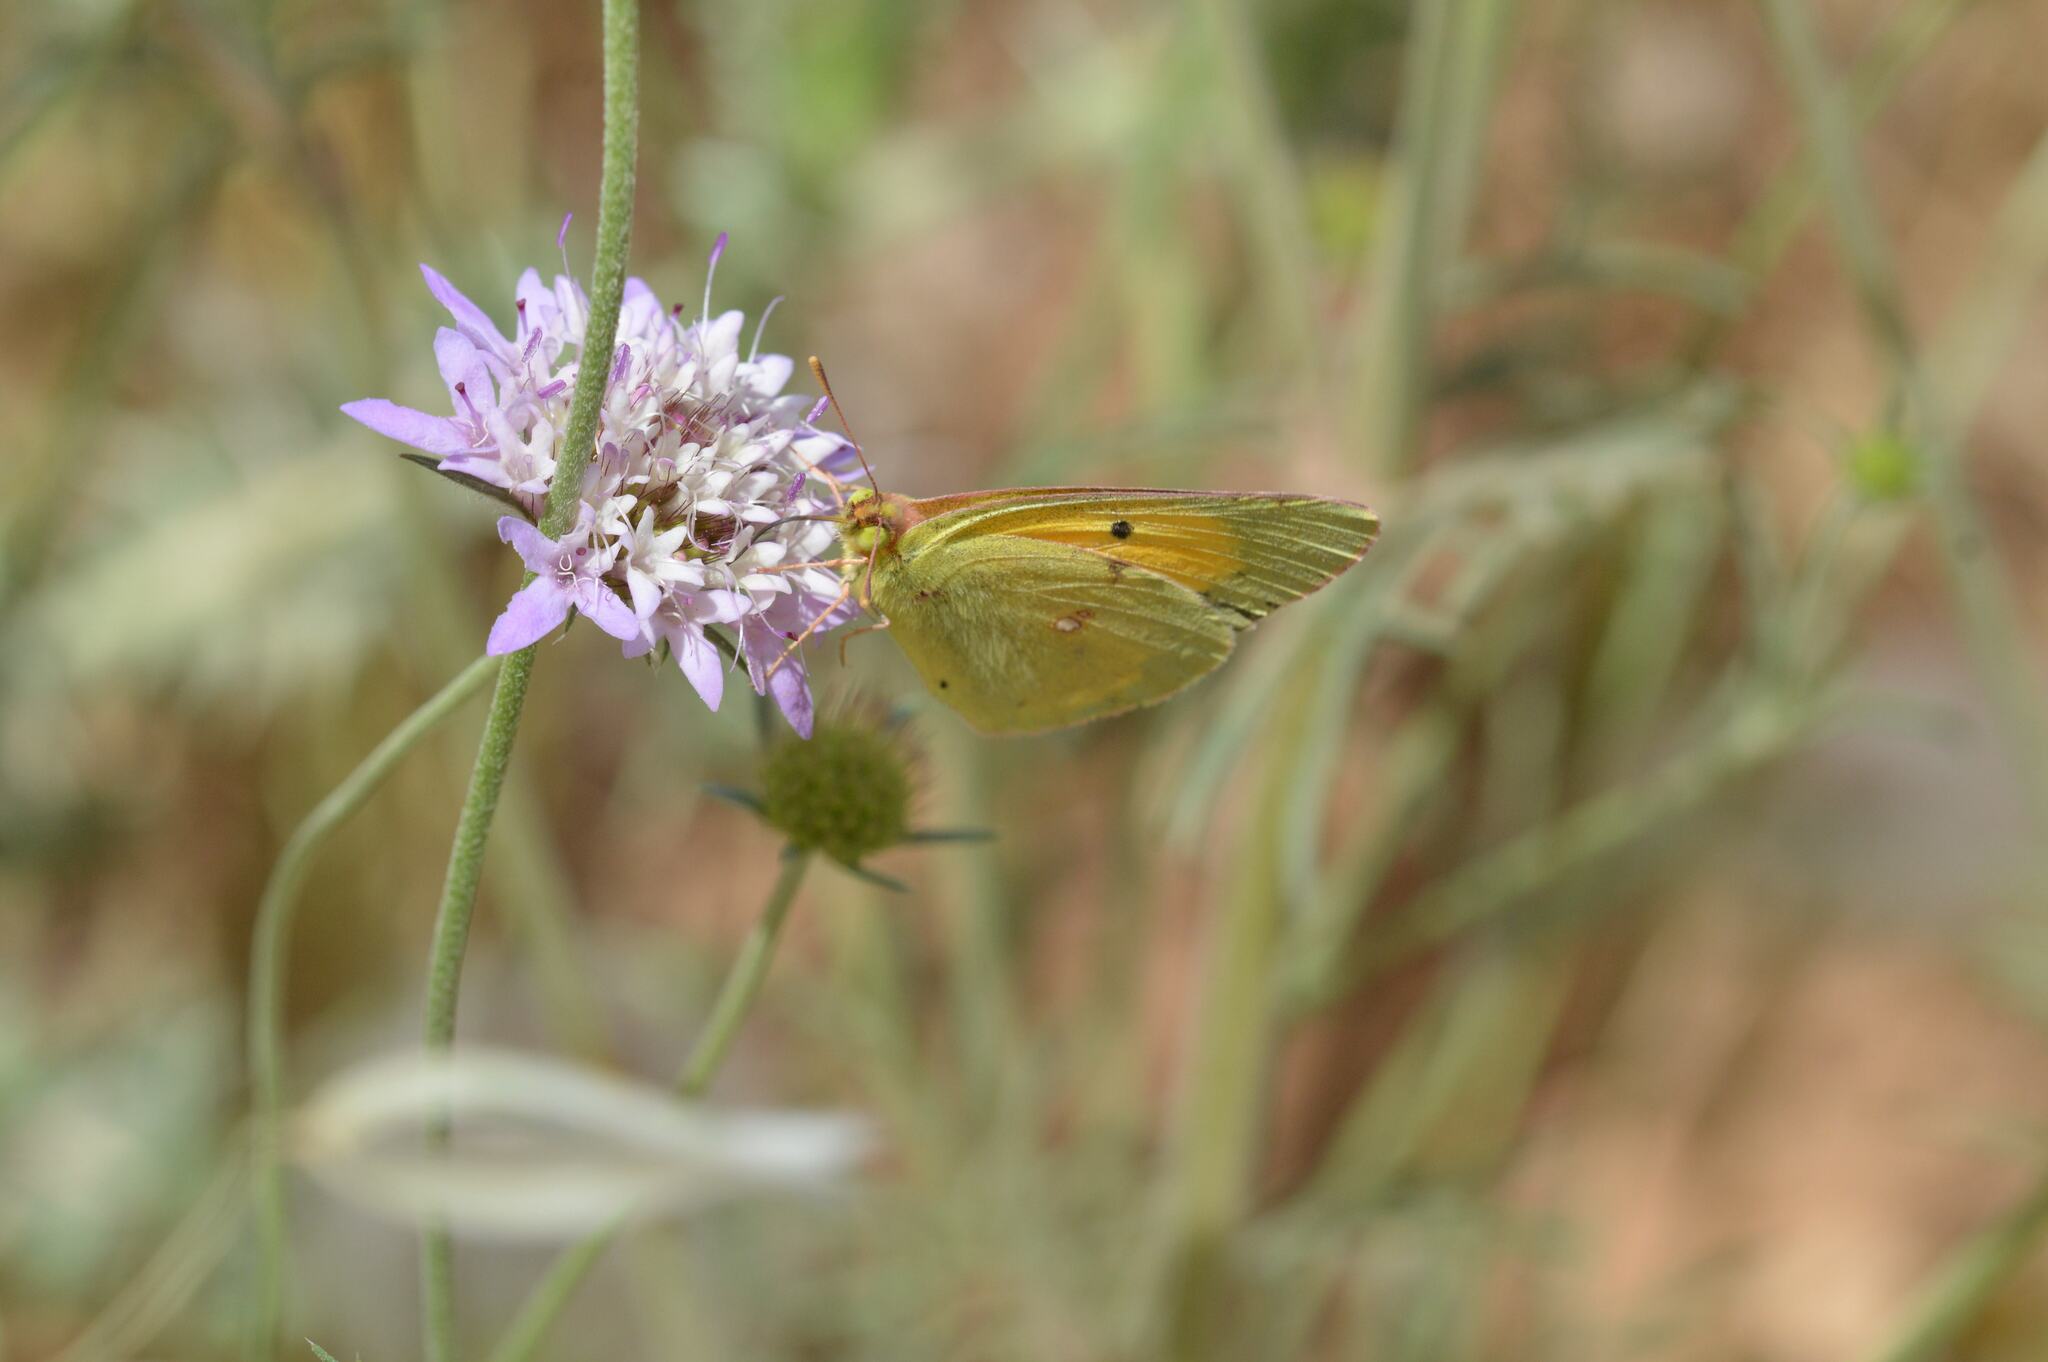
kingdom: Animalia
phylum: Arthropoda
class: Insecta
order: Lepidoptera
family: Pieridae
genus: Colias
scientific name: Colias croceus
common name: Clouded yellow
